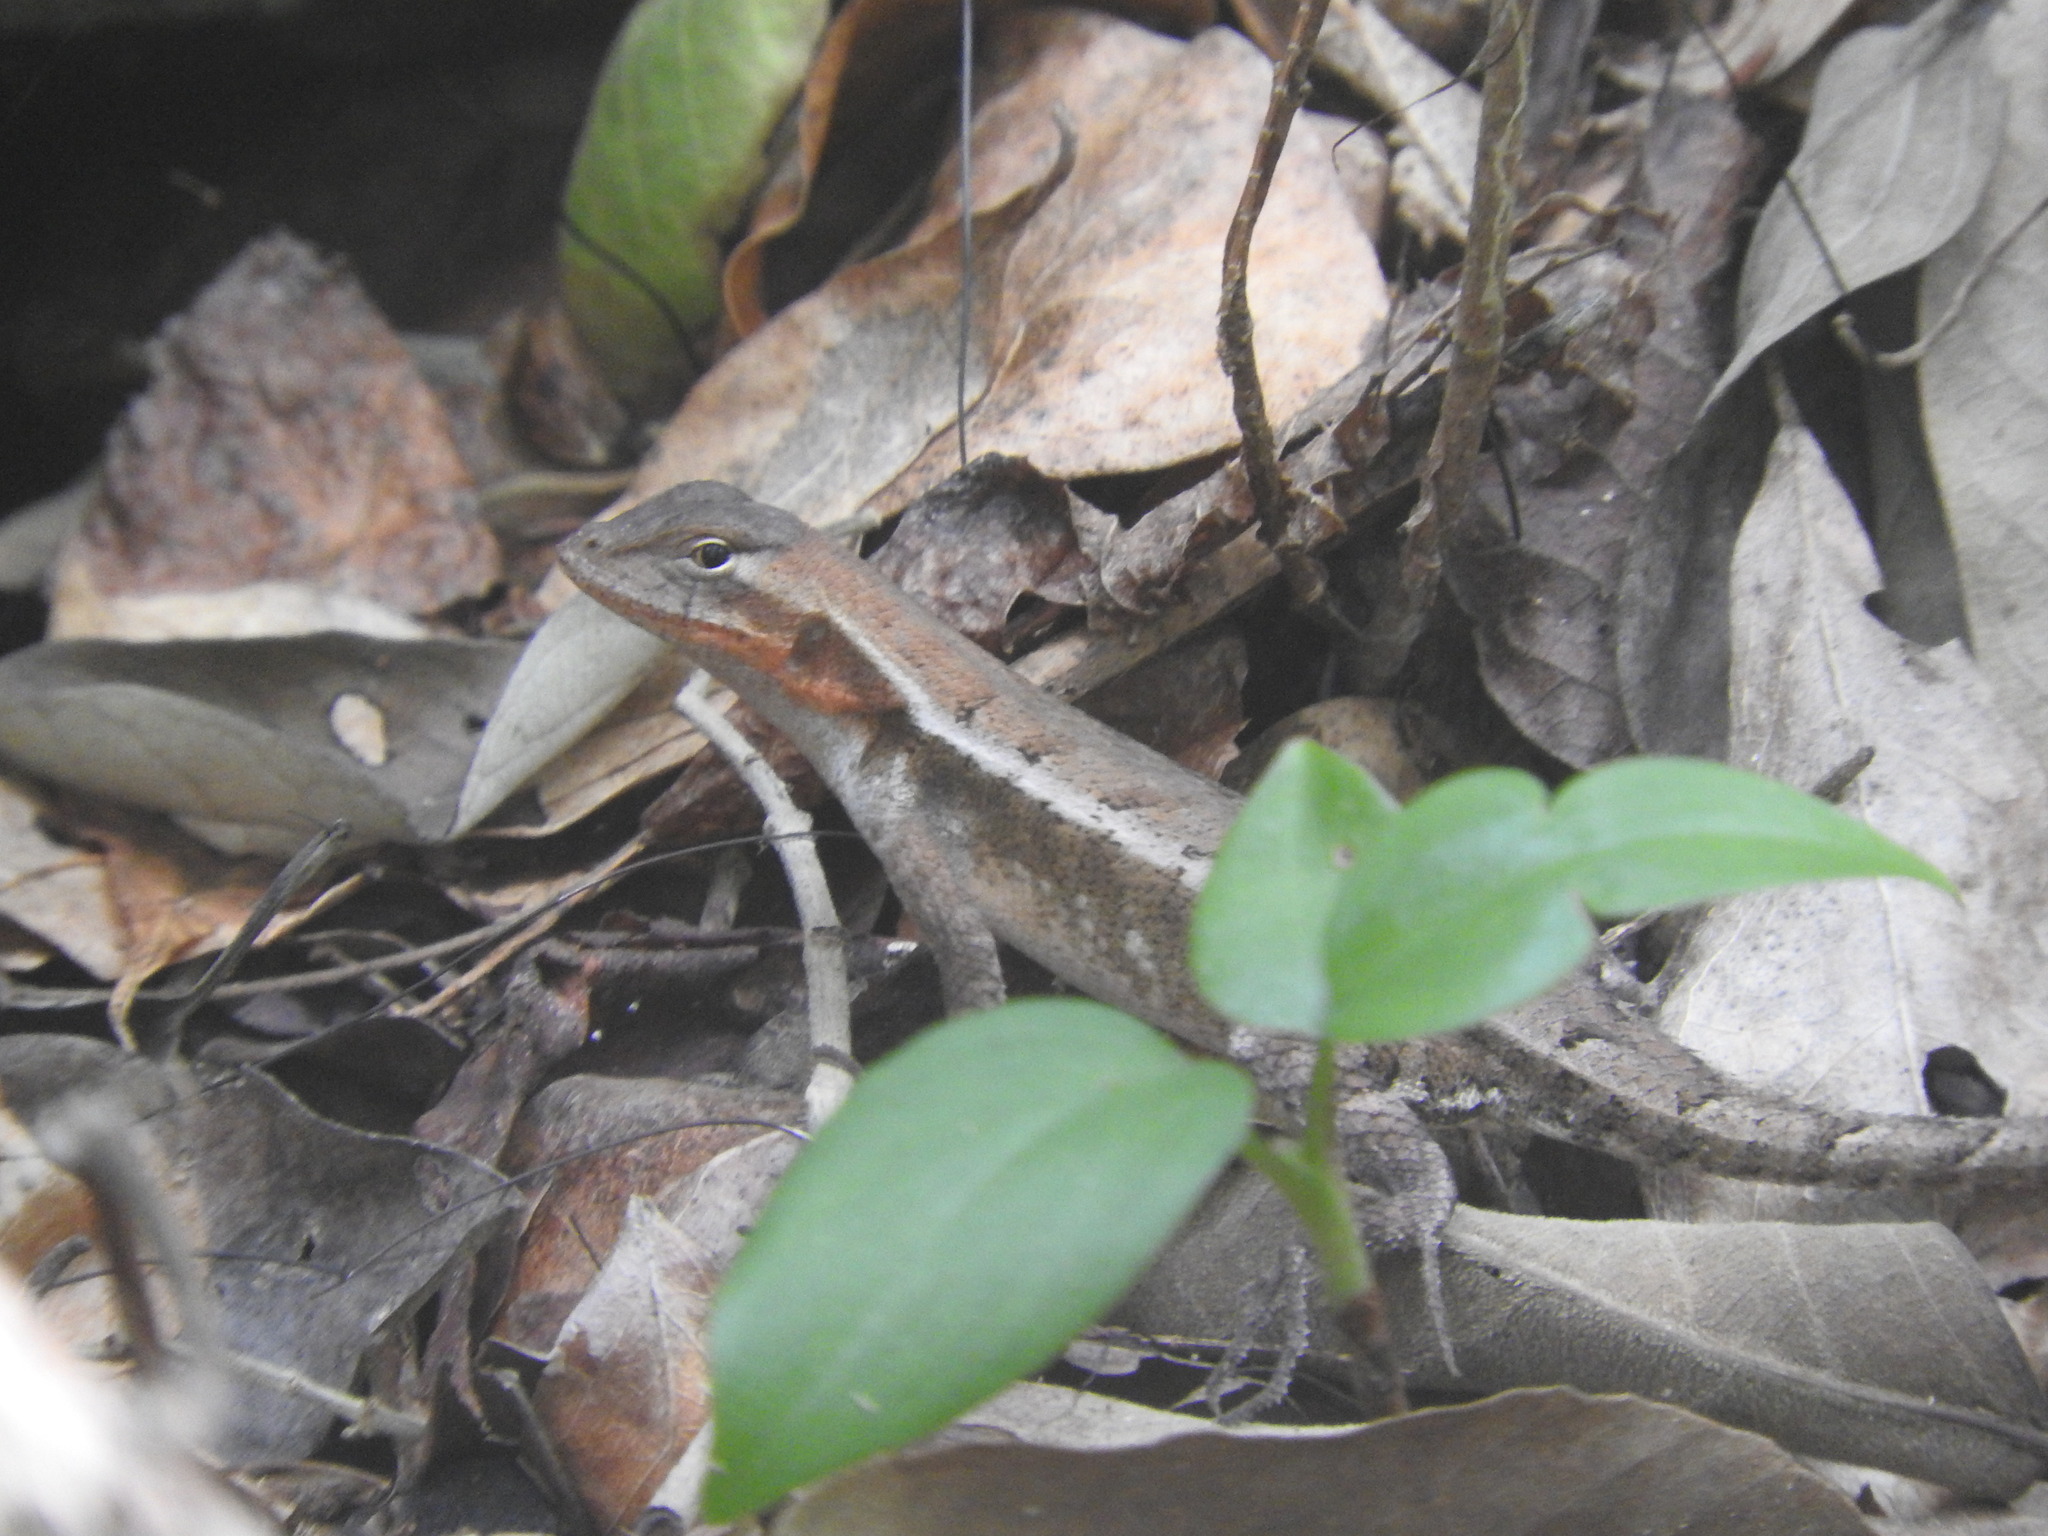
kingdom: Animalia
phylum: Chordata
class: Squamata
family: Phrynosomatidae
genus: Sceloporus
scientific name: Sceloporus chrysostictus
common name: Yellow-spotted spiny lizard
